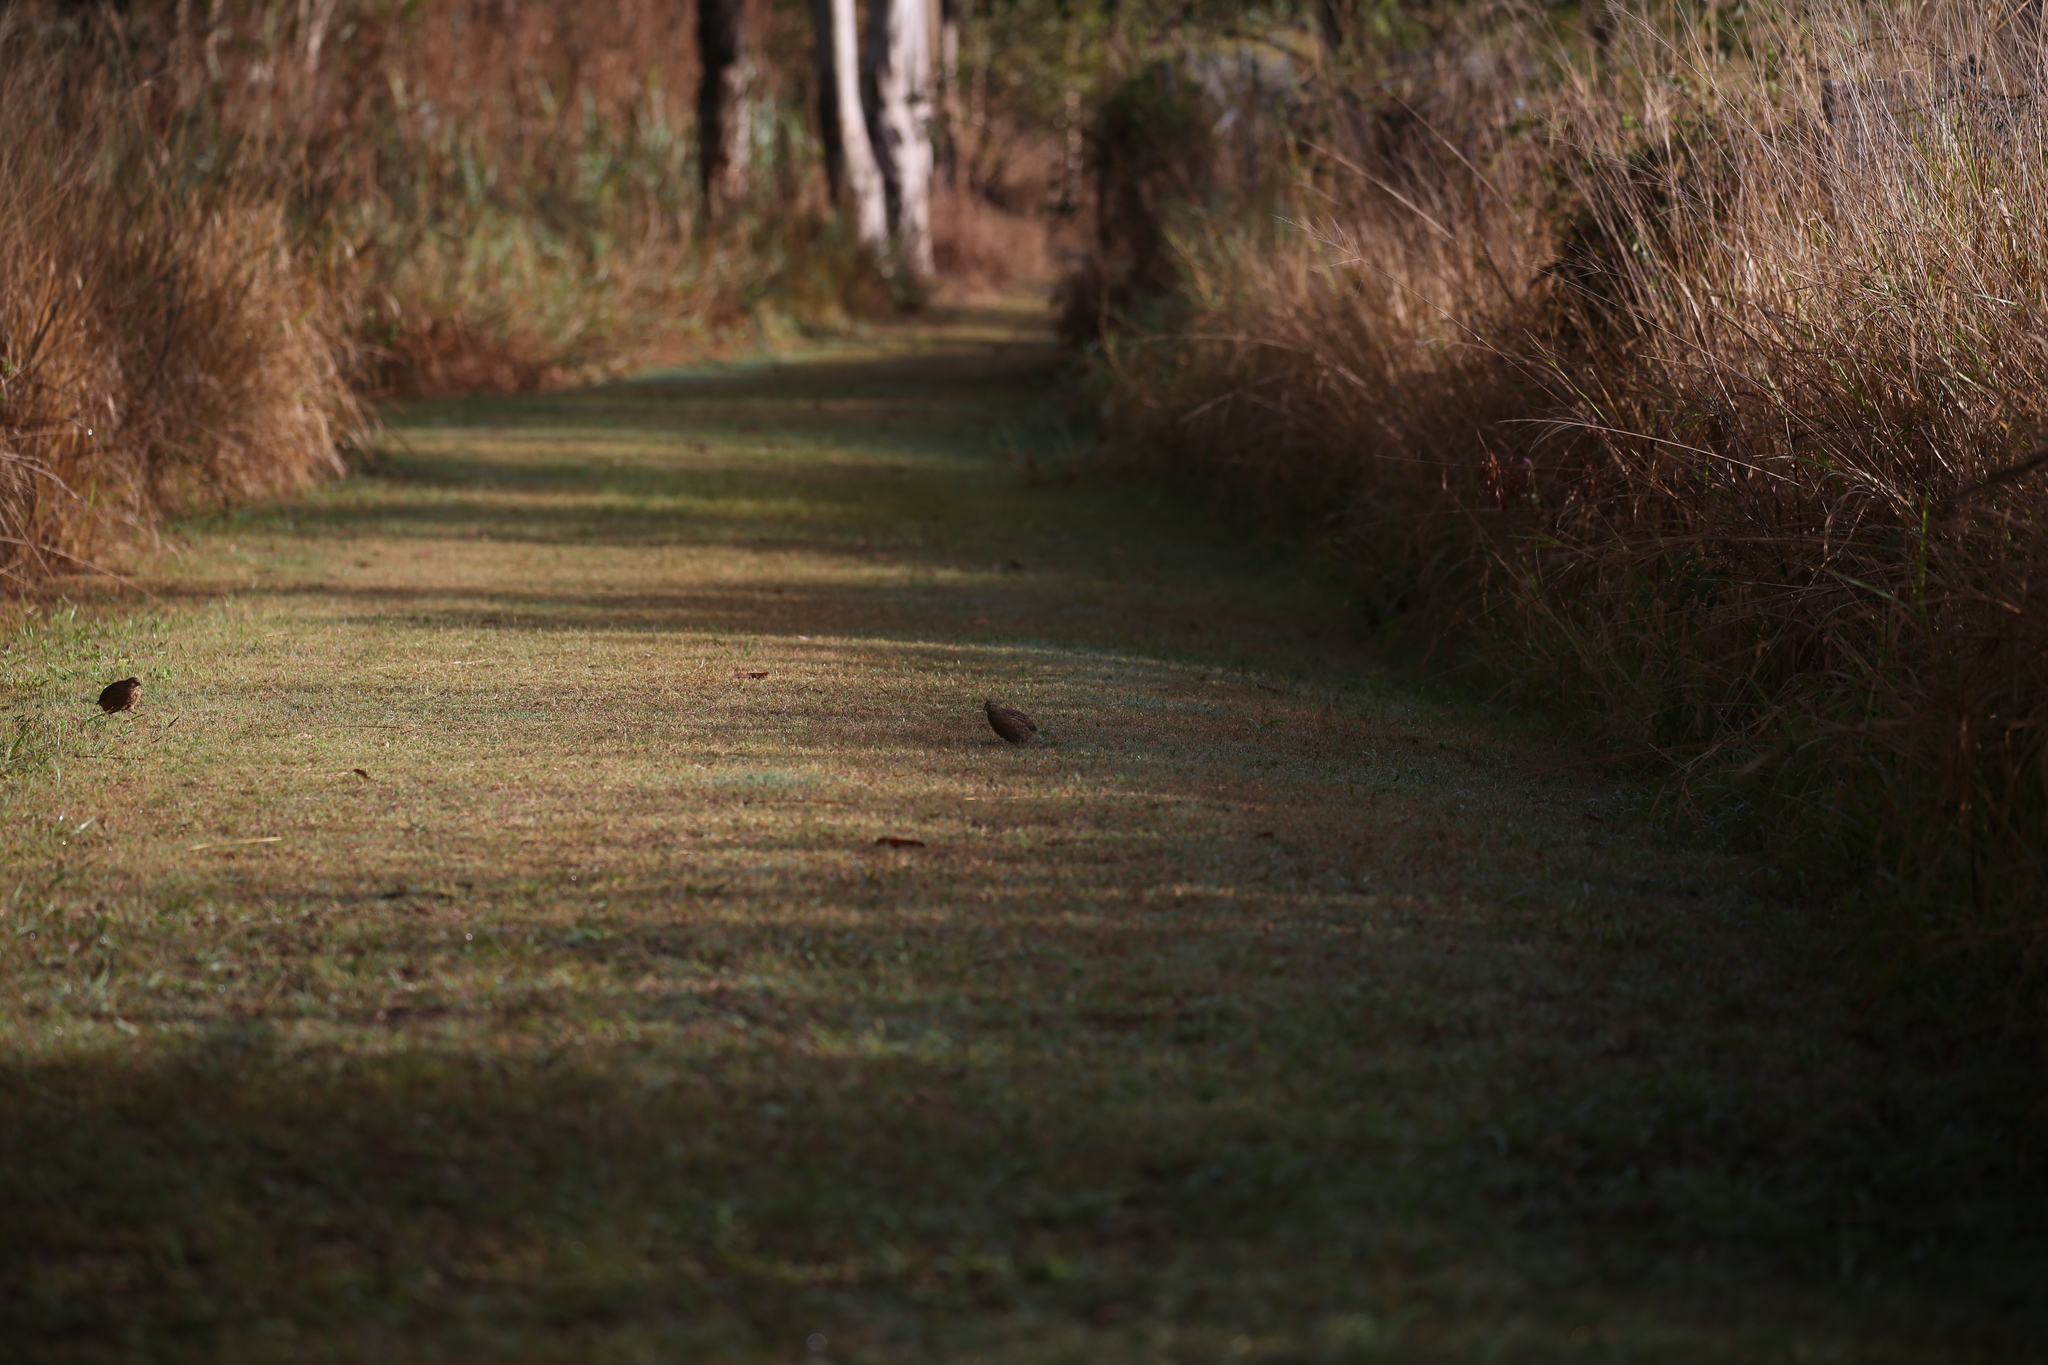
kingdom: Animalia
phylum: Chordata
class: Aves
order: Galliformes
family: Phasianidae
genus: Synoicus
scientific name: Synoicus ypsilophorus
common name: Brown quail
